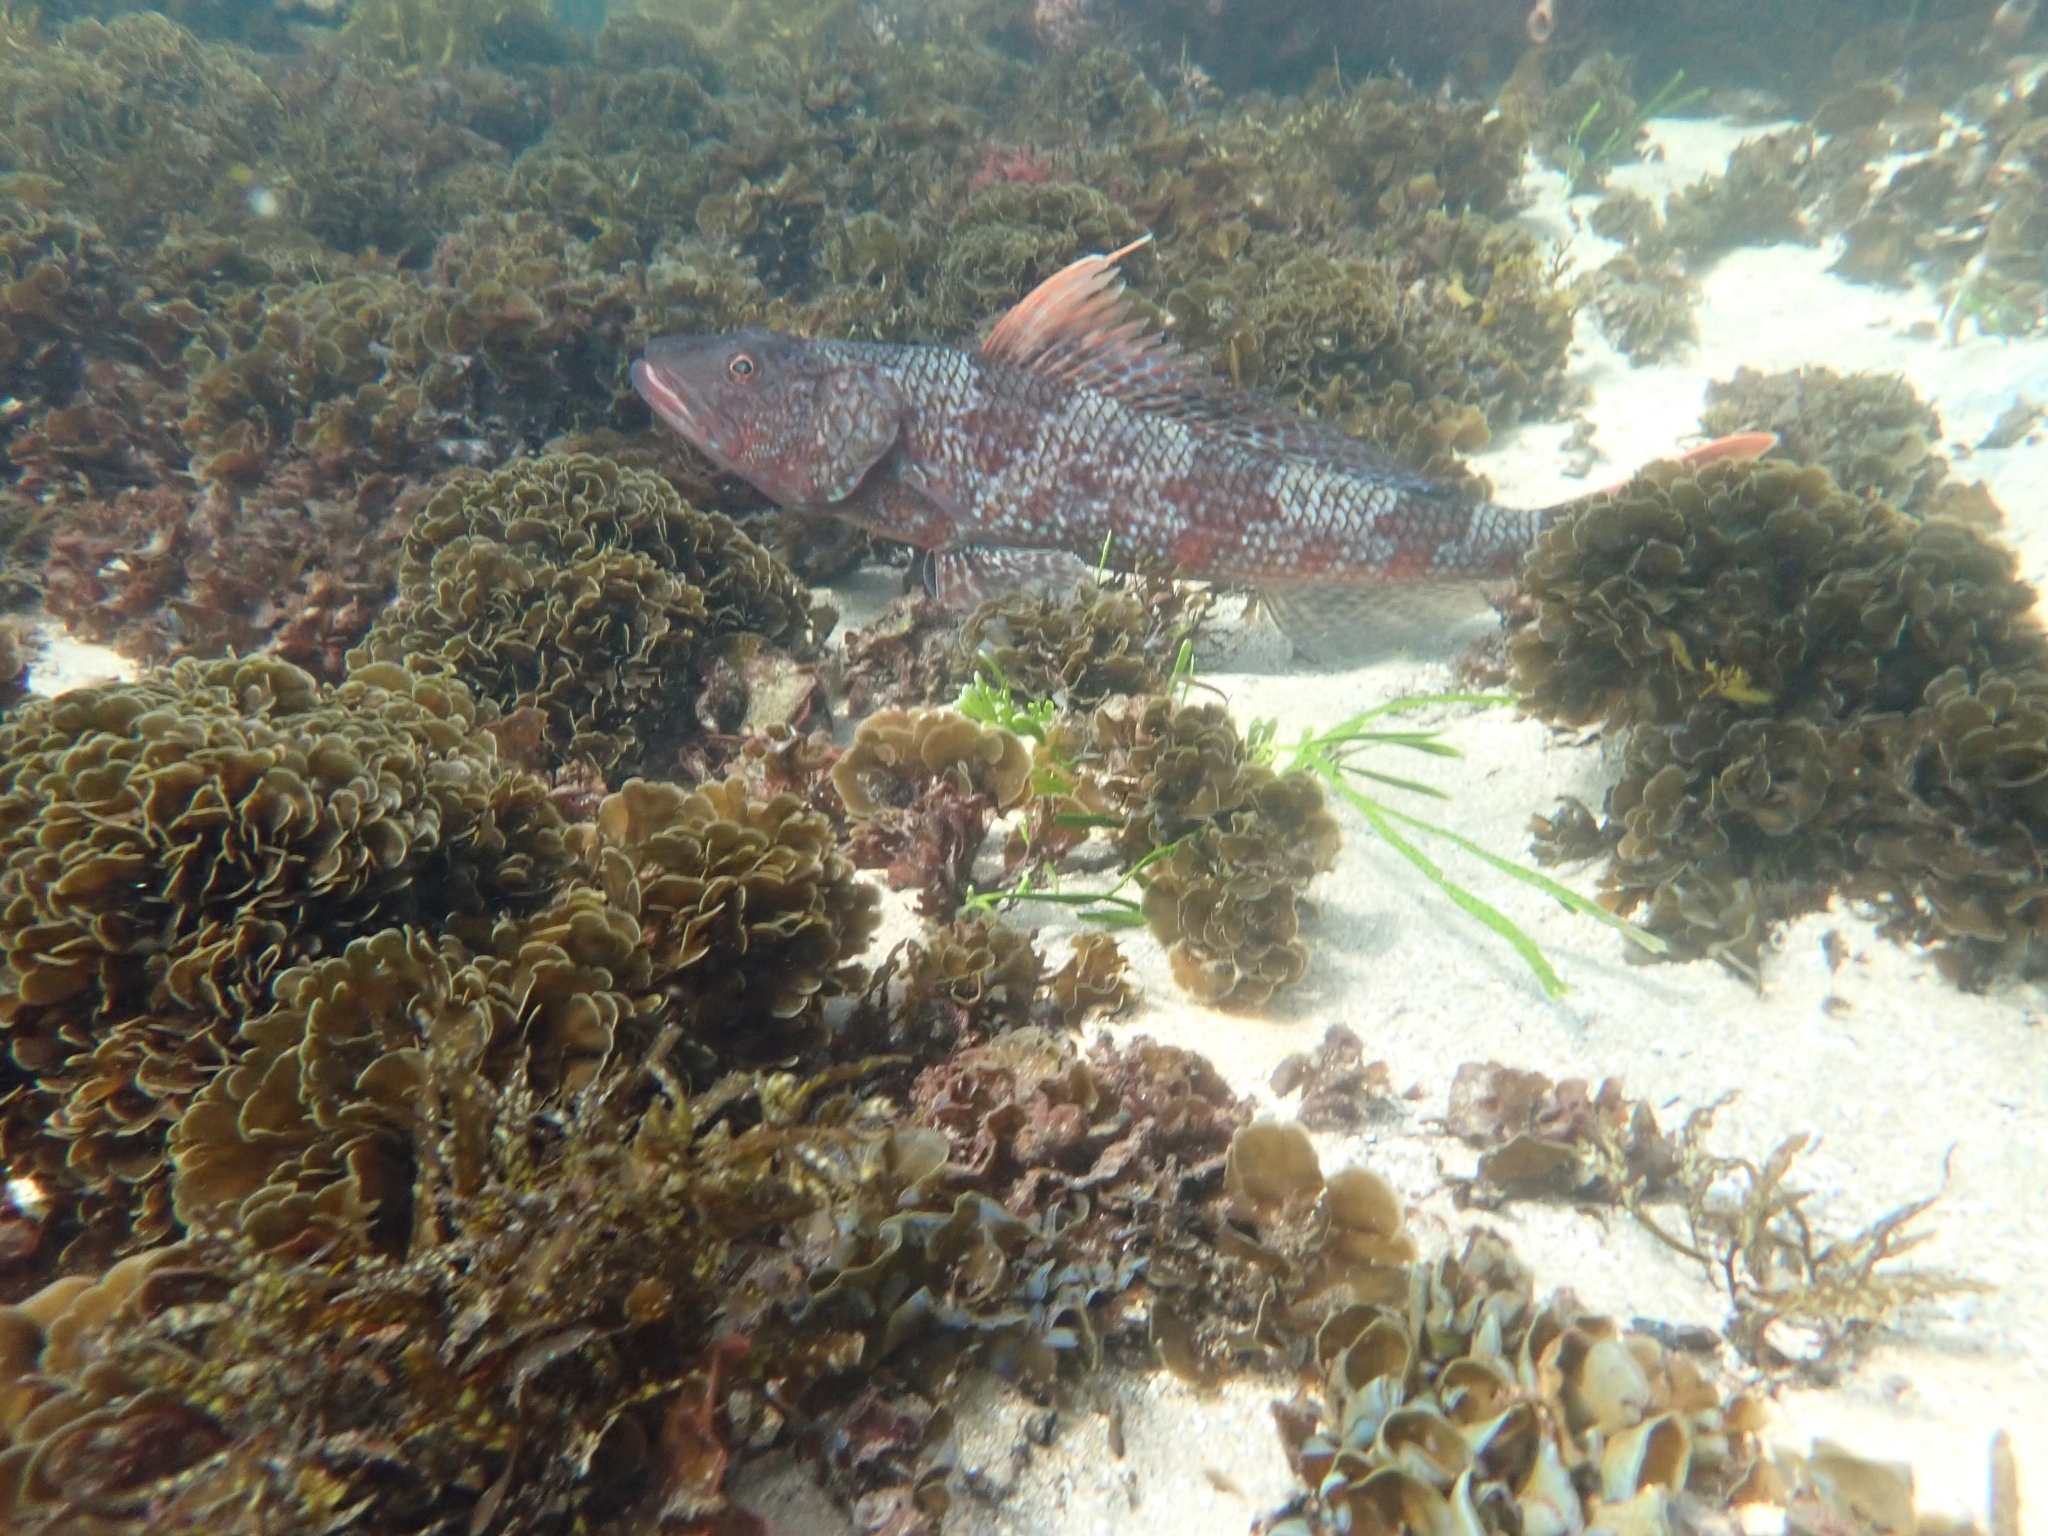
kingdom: Animalia
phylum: Chordata
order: Aulopiformes
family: Aulopidae
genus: Latropiscis
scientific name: Latropiscis purpurissatus
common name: Sergeant baker
